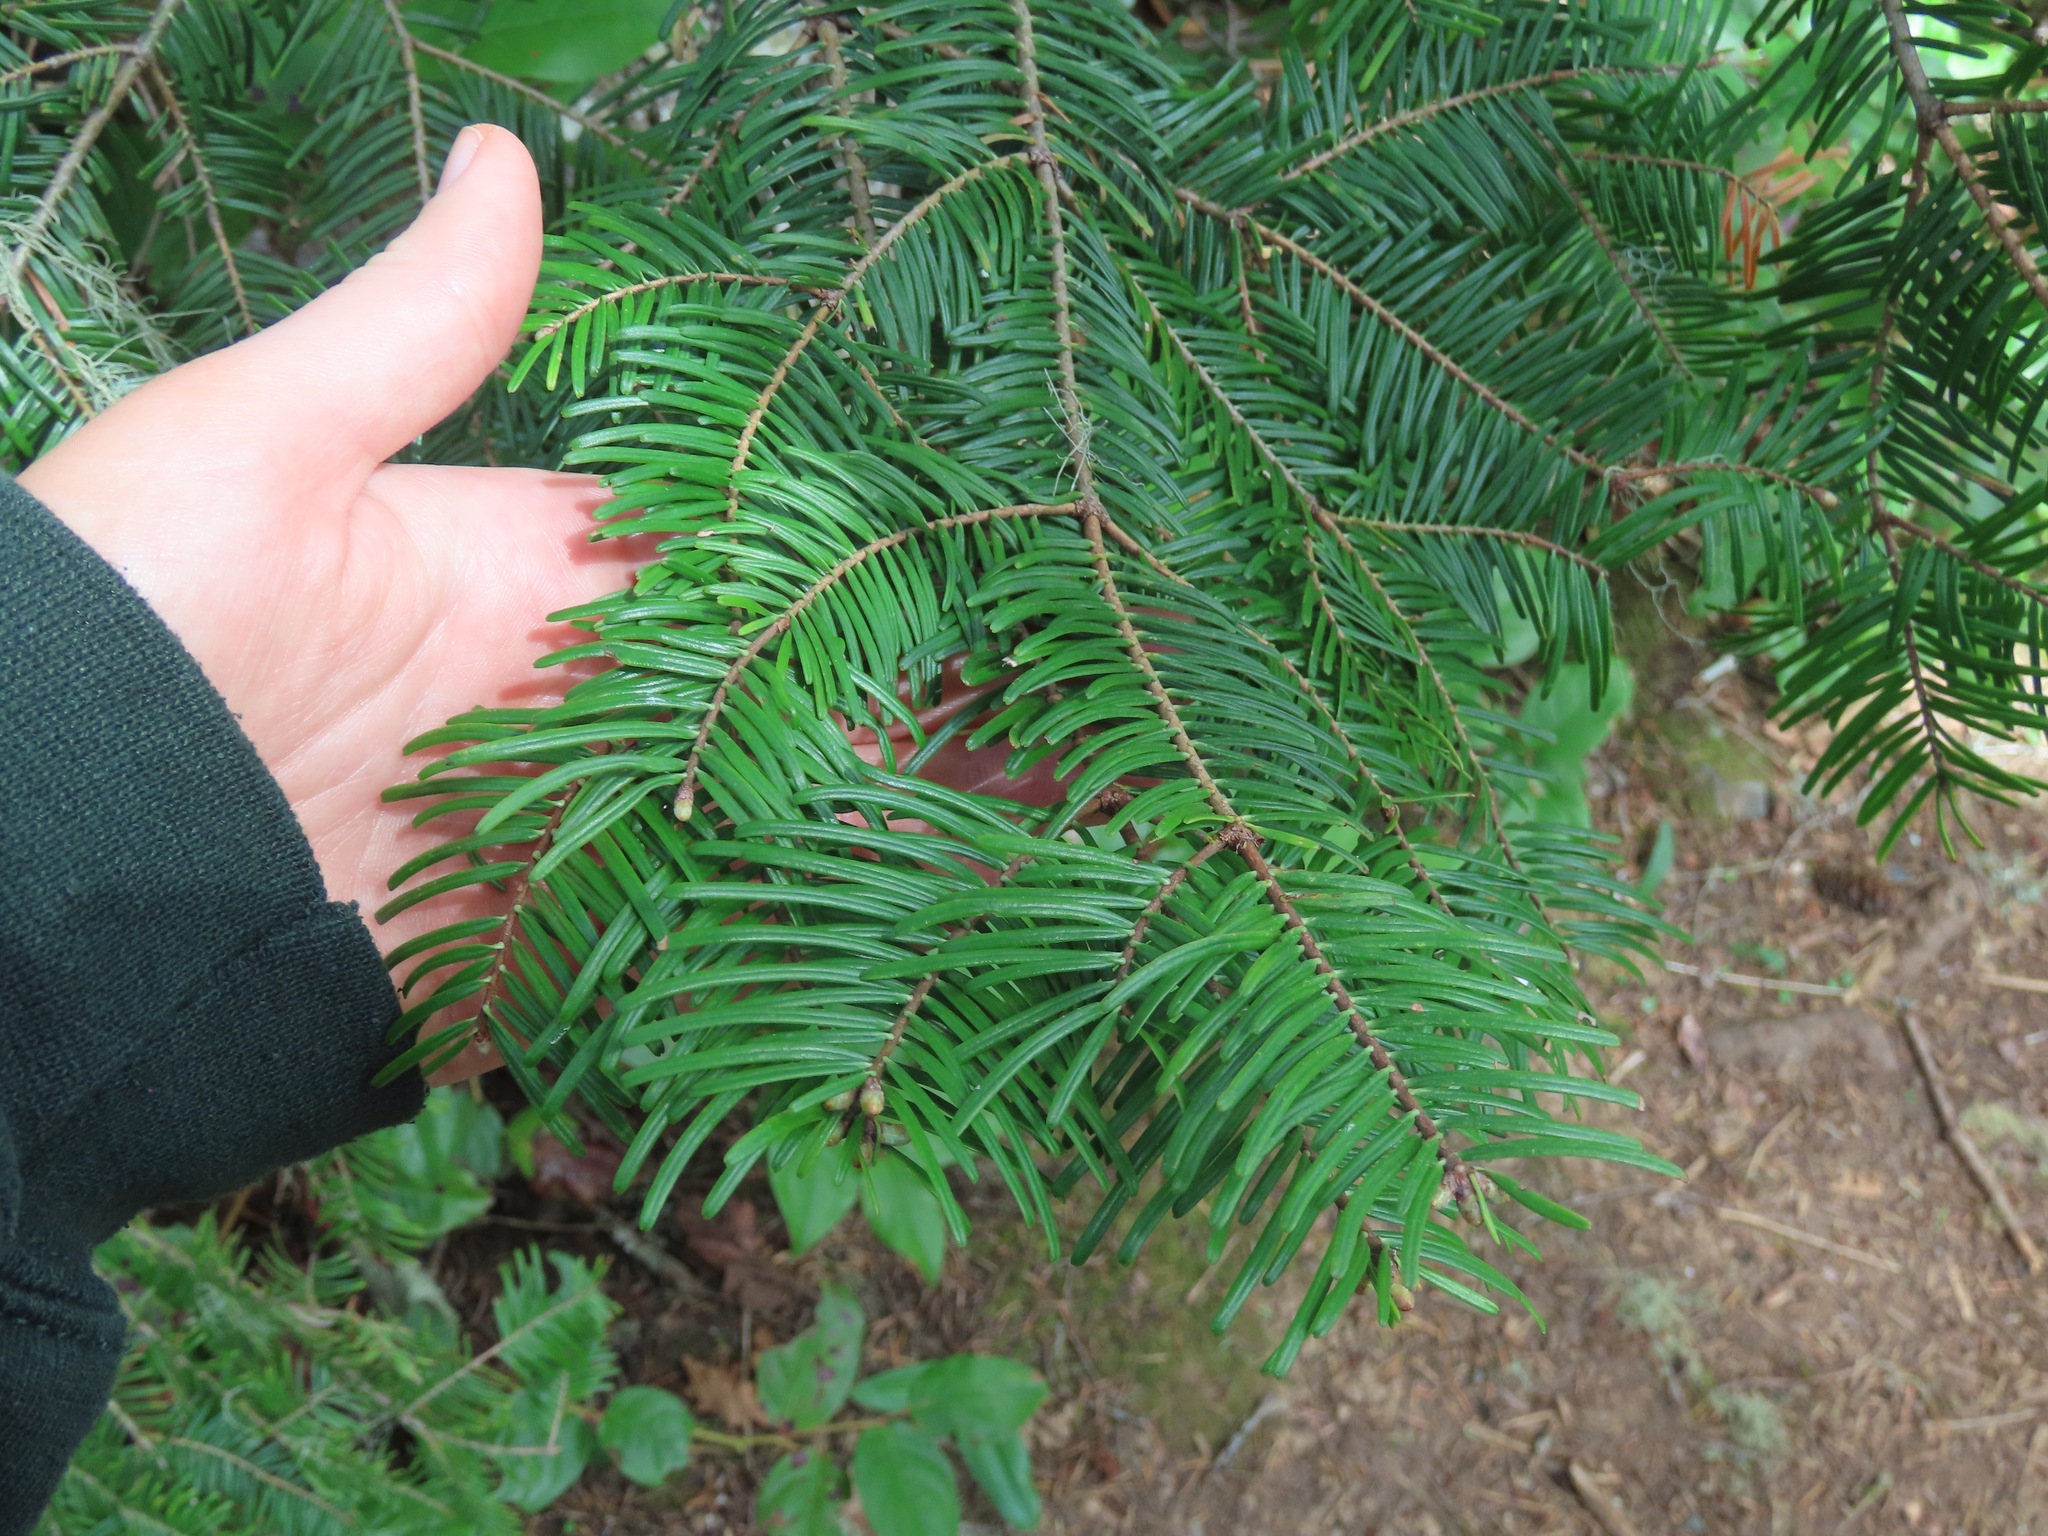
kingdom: Plantae
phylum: Tracheophyta
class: Pinopsida
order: Pinales
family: Pinaceae
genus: Abies
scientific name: Abies grandis
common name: Giant fir
